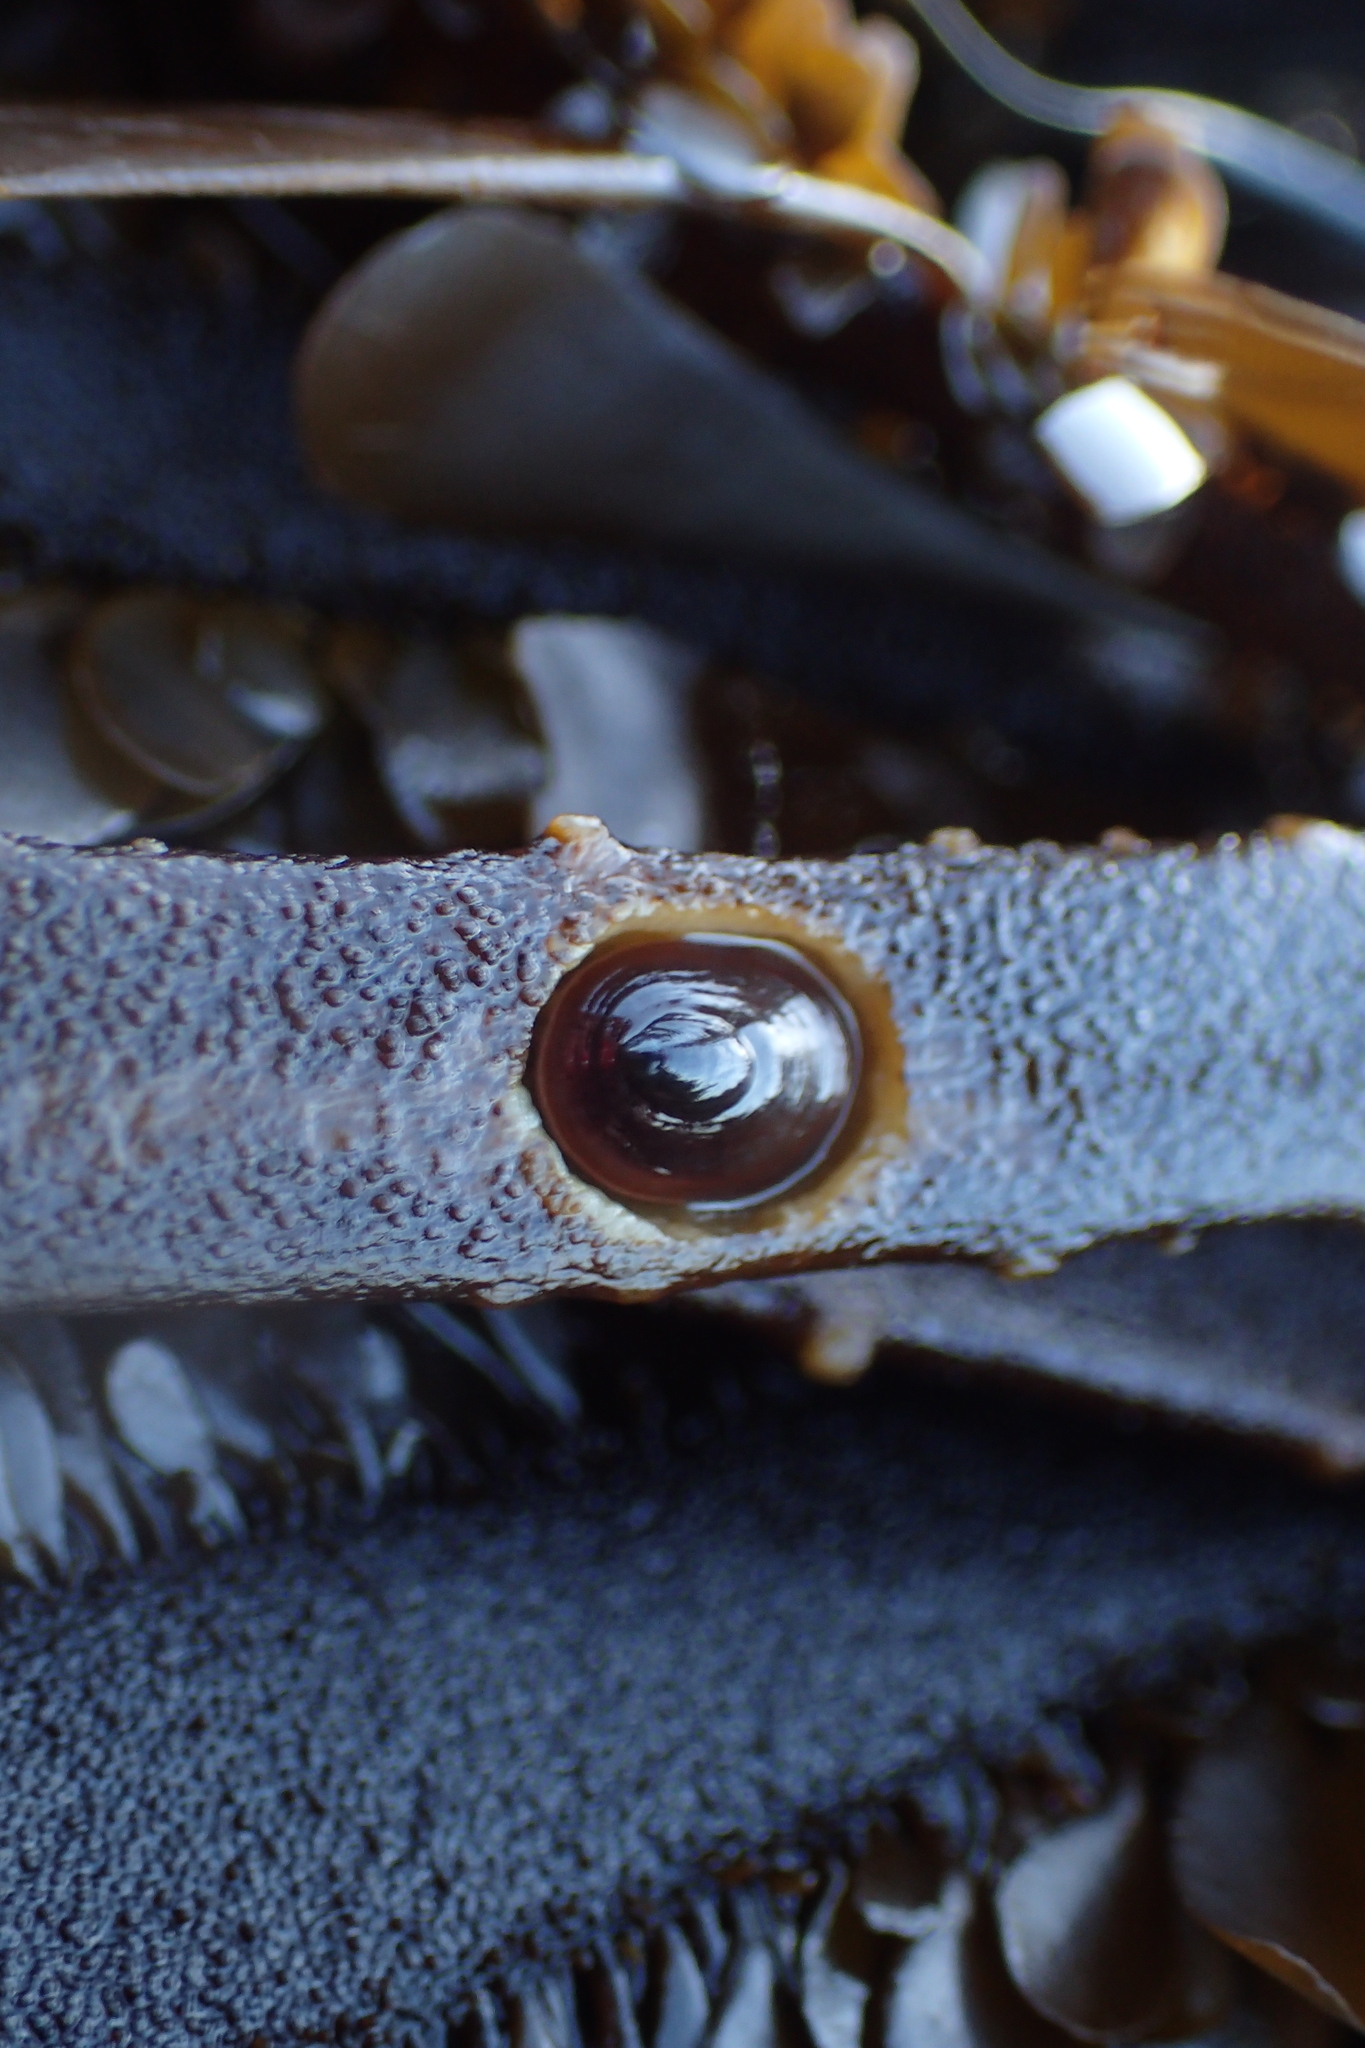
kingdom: Animalia
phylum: Mollusca
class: Gastropoda
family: Lottiidae
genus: Discurria
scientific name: Discurria insessa
